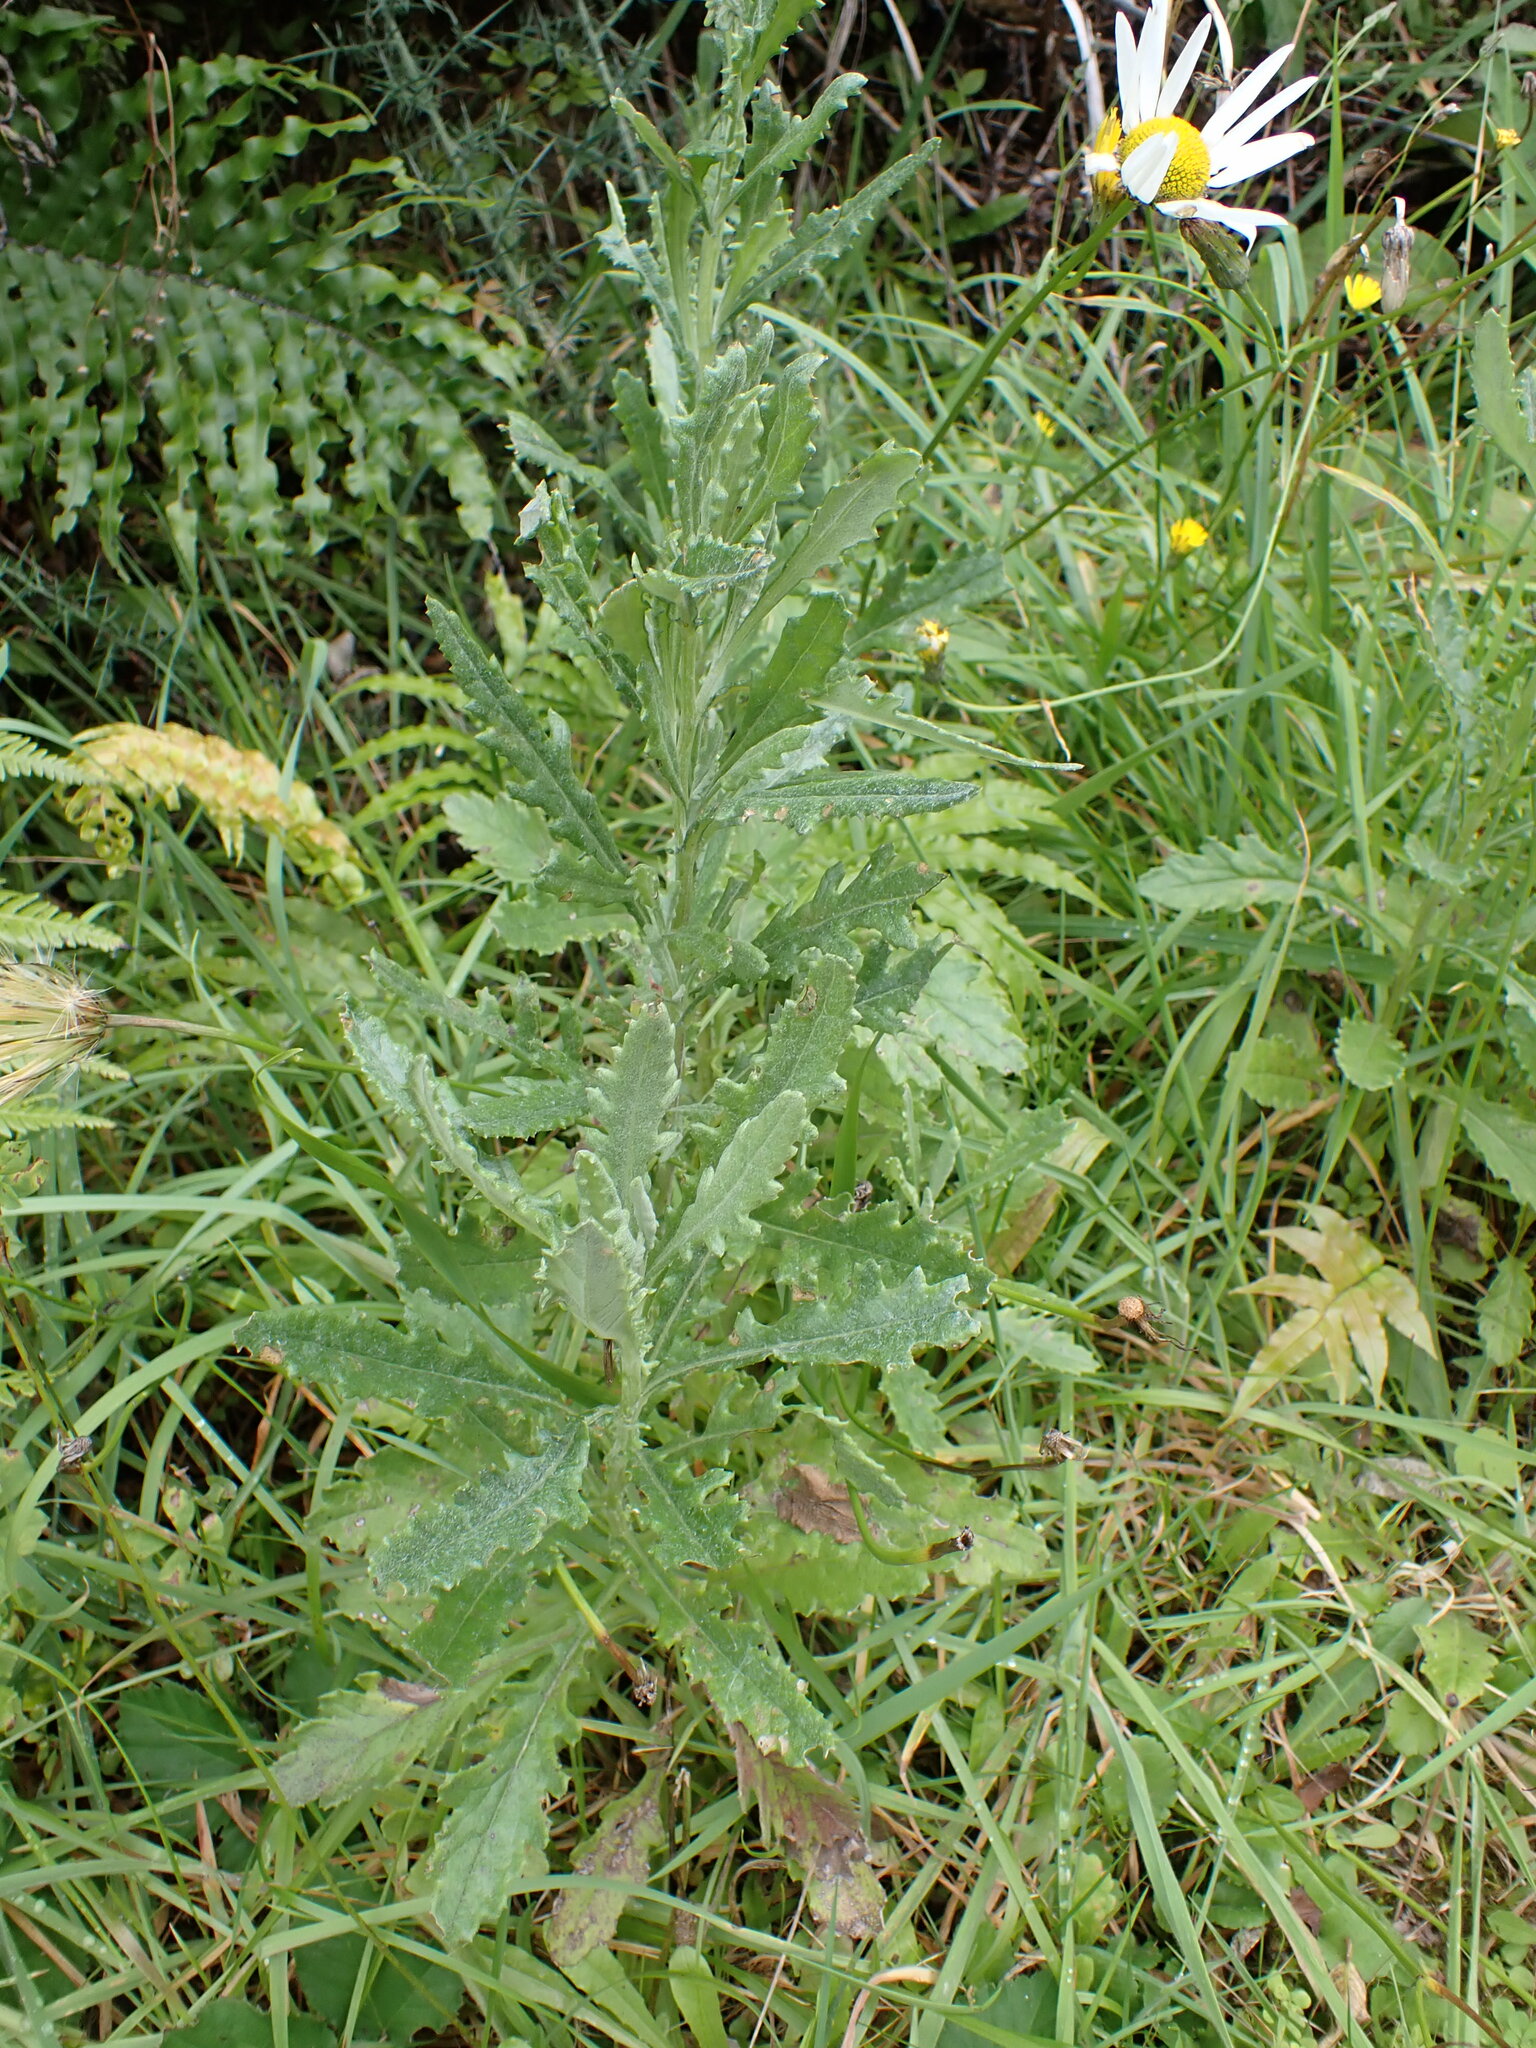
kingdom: Plantae
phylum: Tracheophyta
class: Magnoliopsida
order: Asterales
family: Asteraceae
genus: Senecio
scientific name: Senecio glomeratus
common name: Cutleaf burnweed
